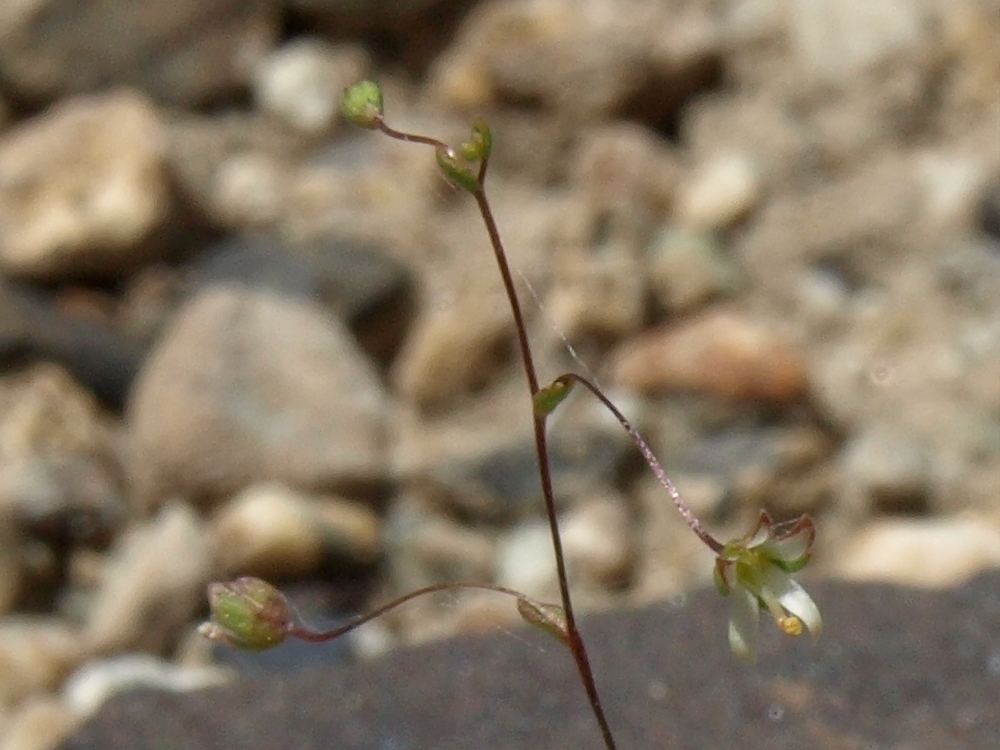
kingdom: Plantae
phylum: Tracheophyta
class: Magnoliopsida
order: Asterales
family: Campanulaceae
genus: Nemacladus
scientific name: Nemacladus morefieldii
